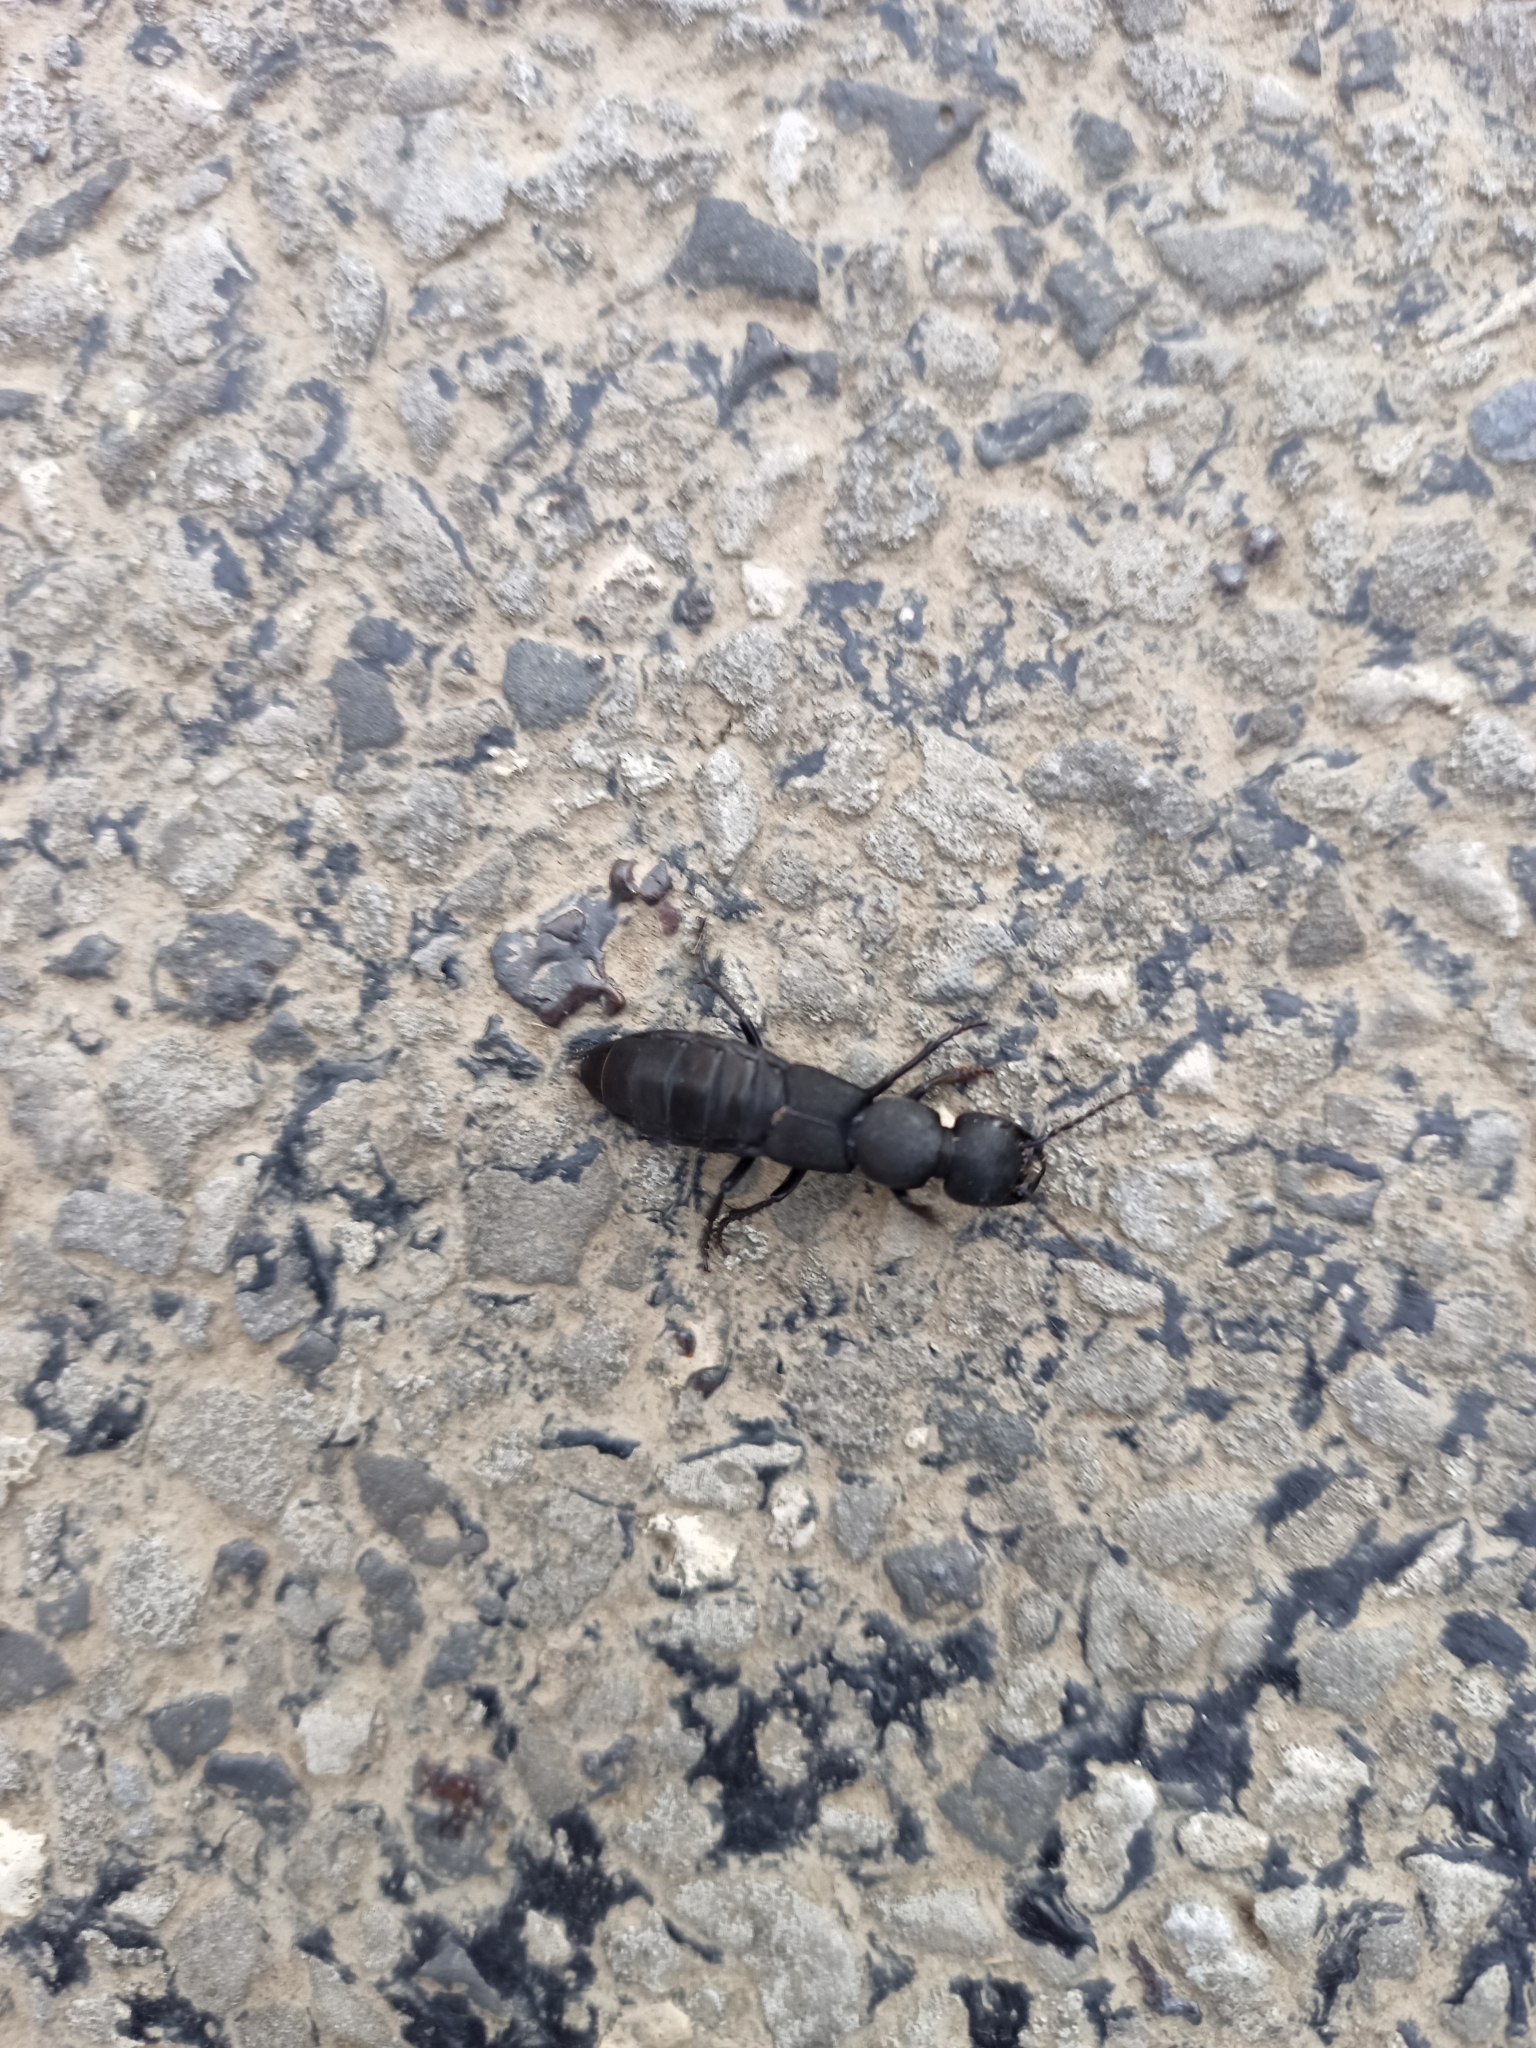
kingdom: Animalia
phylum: Arthropoda
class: Insecta
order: Coleoptera
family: Staphylinidae
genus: Ocypus
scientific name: Ocypus olens
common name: Devil's coach-horse
